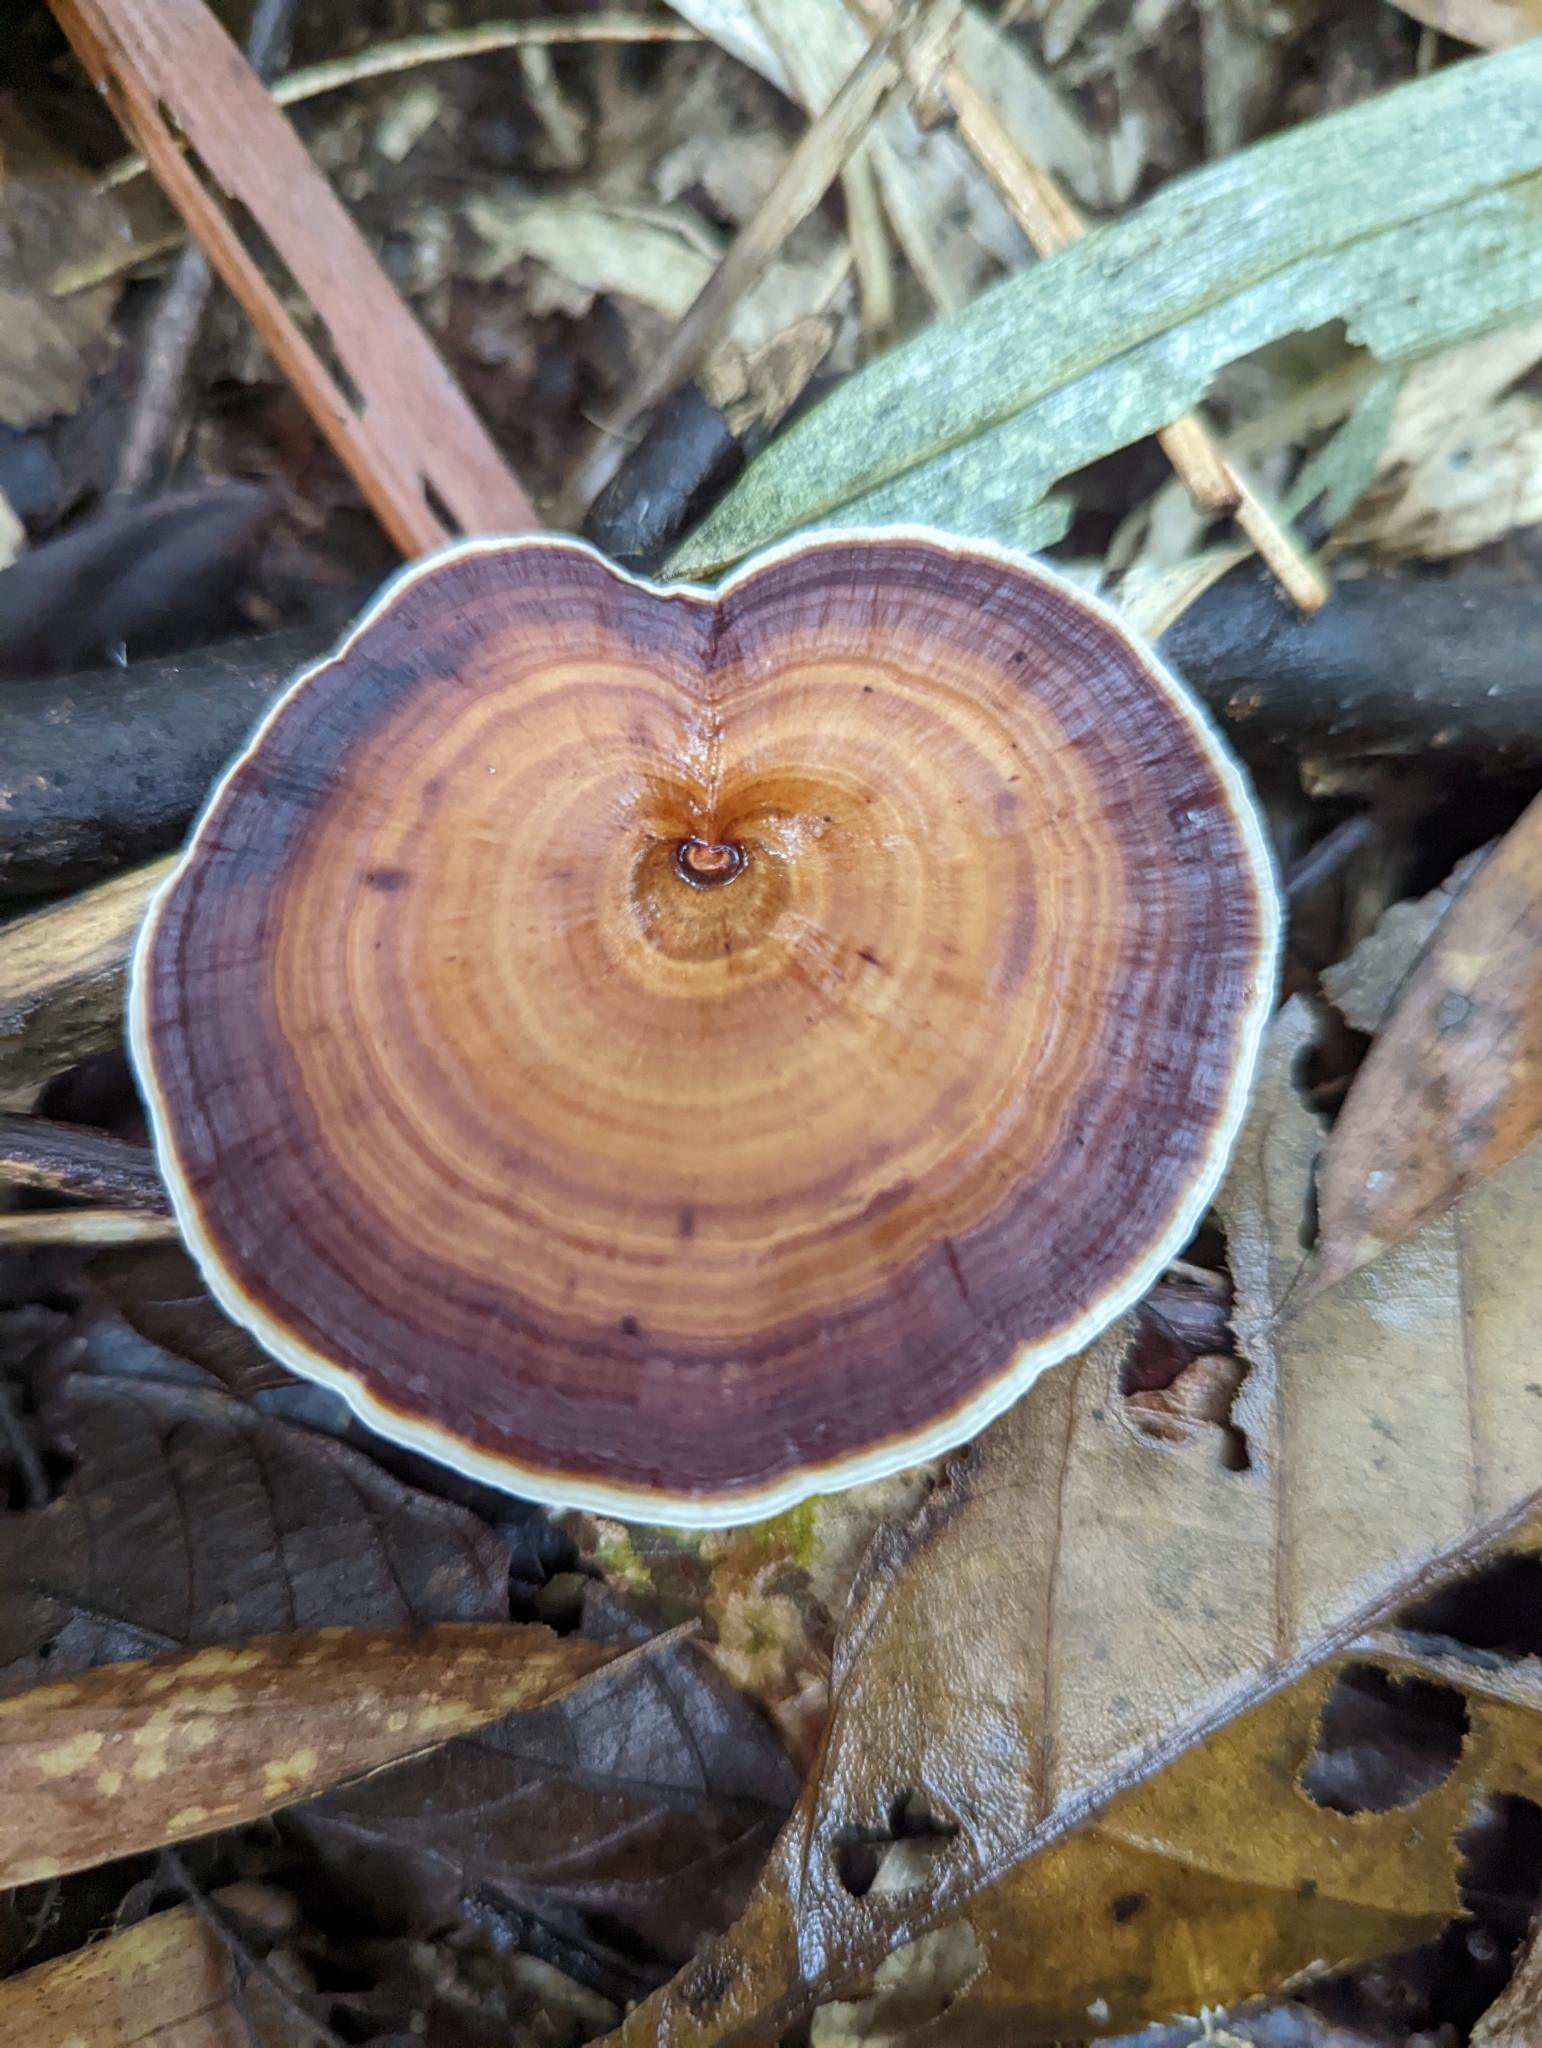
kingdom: Fungi
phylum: Basidiomycota
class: Agaricomycetes
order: Polyporales
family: Polyporaceae
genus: Microporus
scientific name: Microporus xanthopus
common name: Yellow-stemmed micropore
